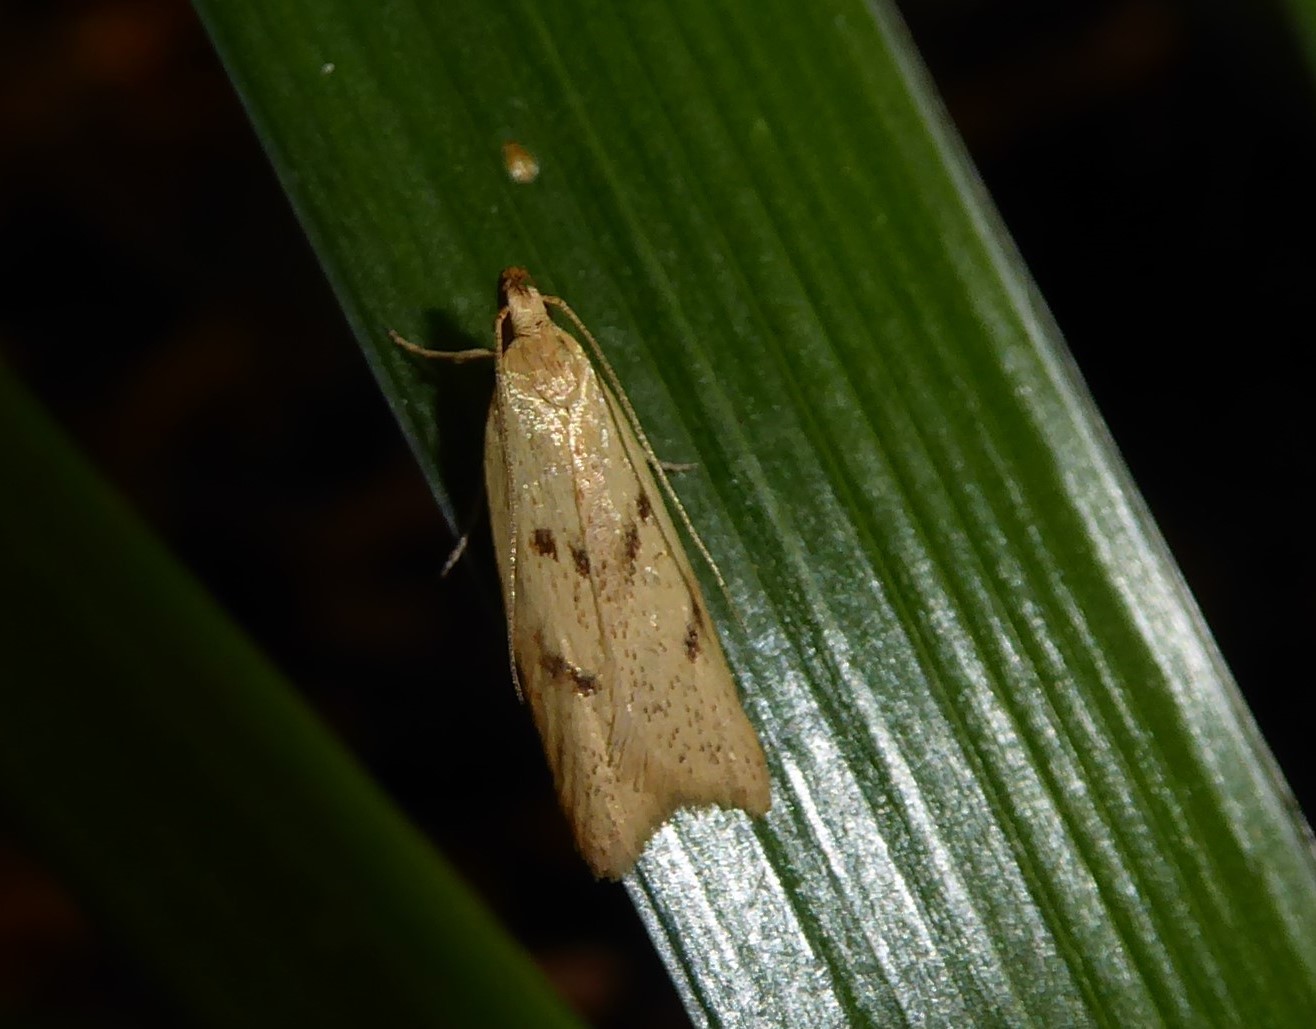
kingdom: Animalia
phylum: Arthropoda
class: Insecta
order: Lepidoptera
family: Oecophoridae
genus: Gymnobathra
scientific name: Gymnobathra sarcoxantha
